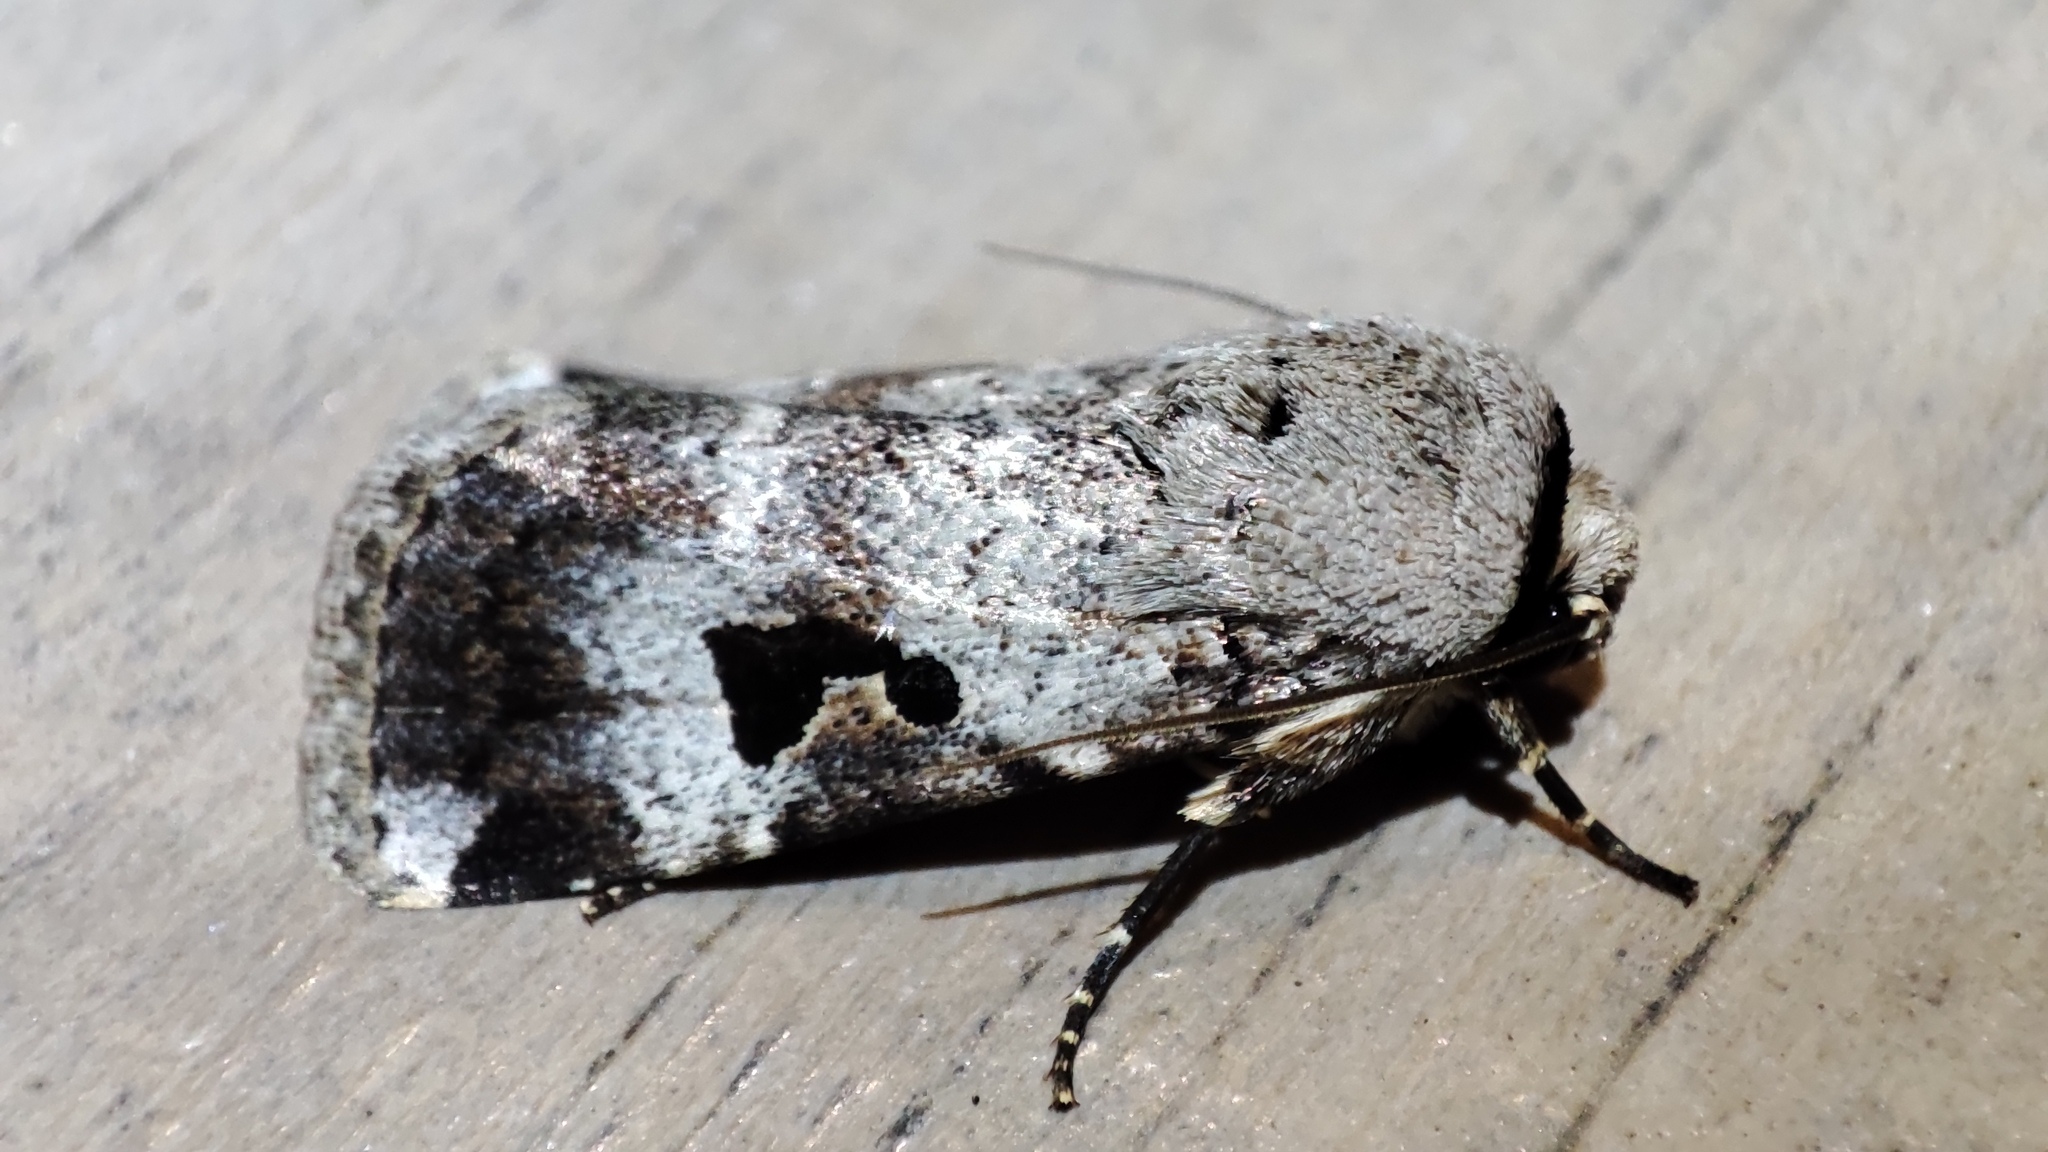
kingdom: Animalia
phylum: Arthropoda
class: Insecta
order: Lepidoptera
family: Noctuidae
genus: Spodoptera
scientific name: Spodoptera abyssinia
